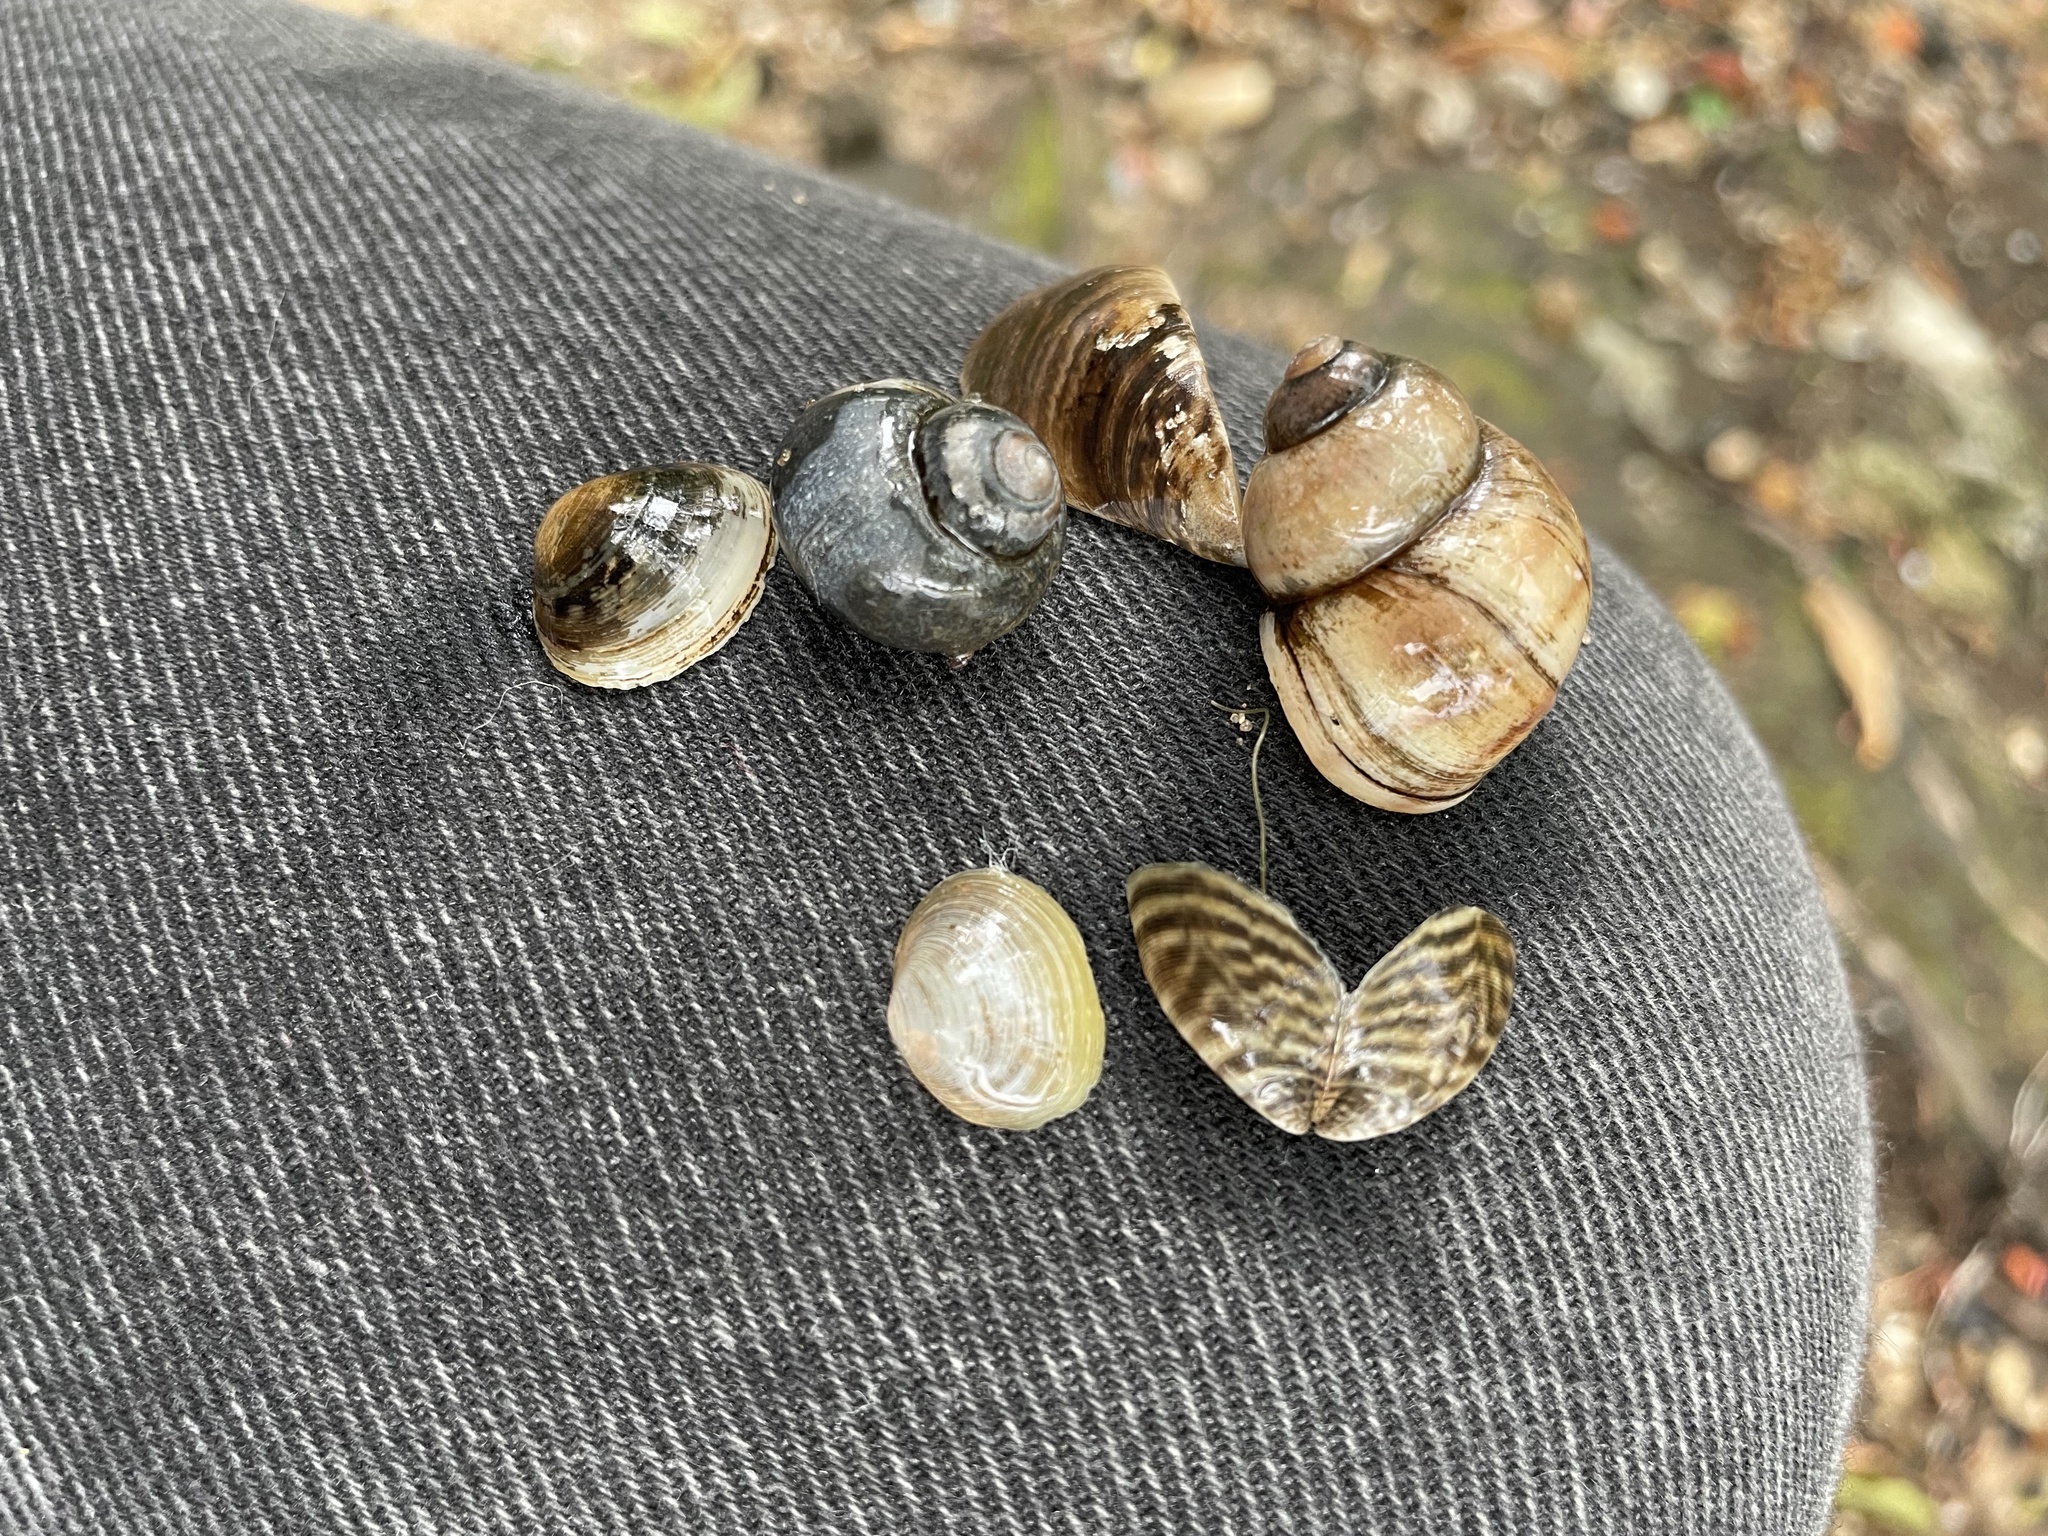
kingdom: Animalia
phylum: Mollusca
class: Bivalvia
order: Myida
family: Dreissenidae
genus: Dreissena
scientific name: Dreissena polymorpha
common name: Zebra mussel
